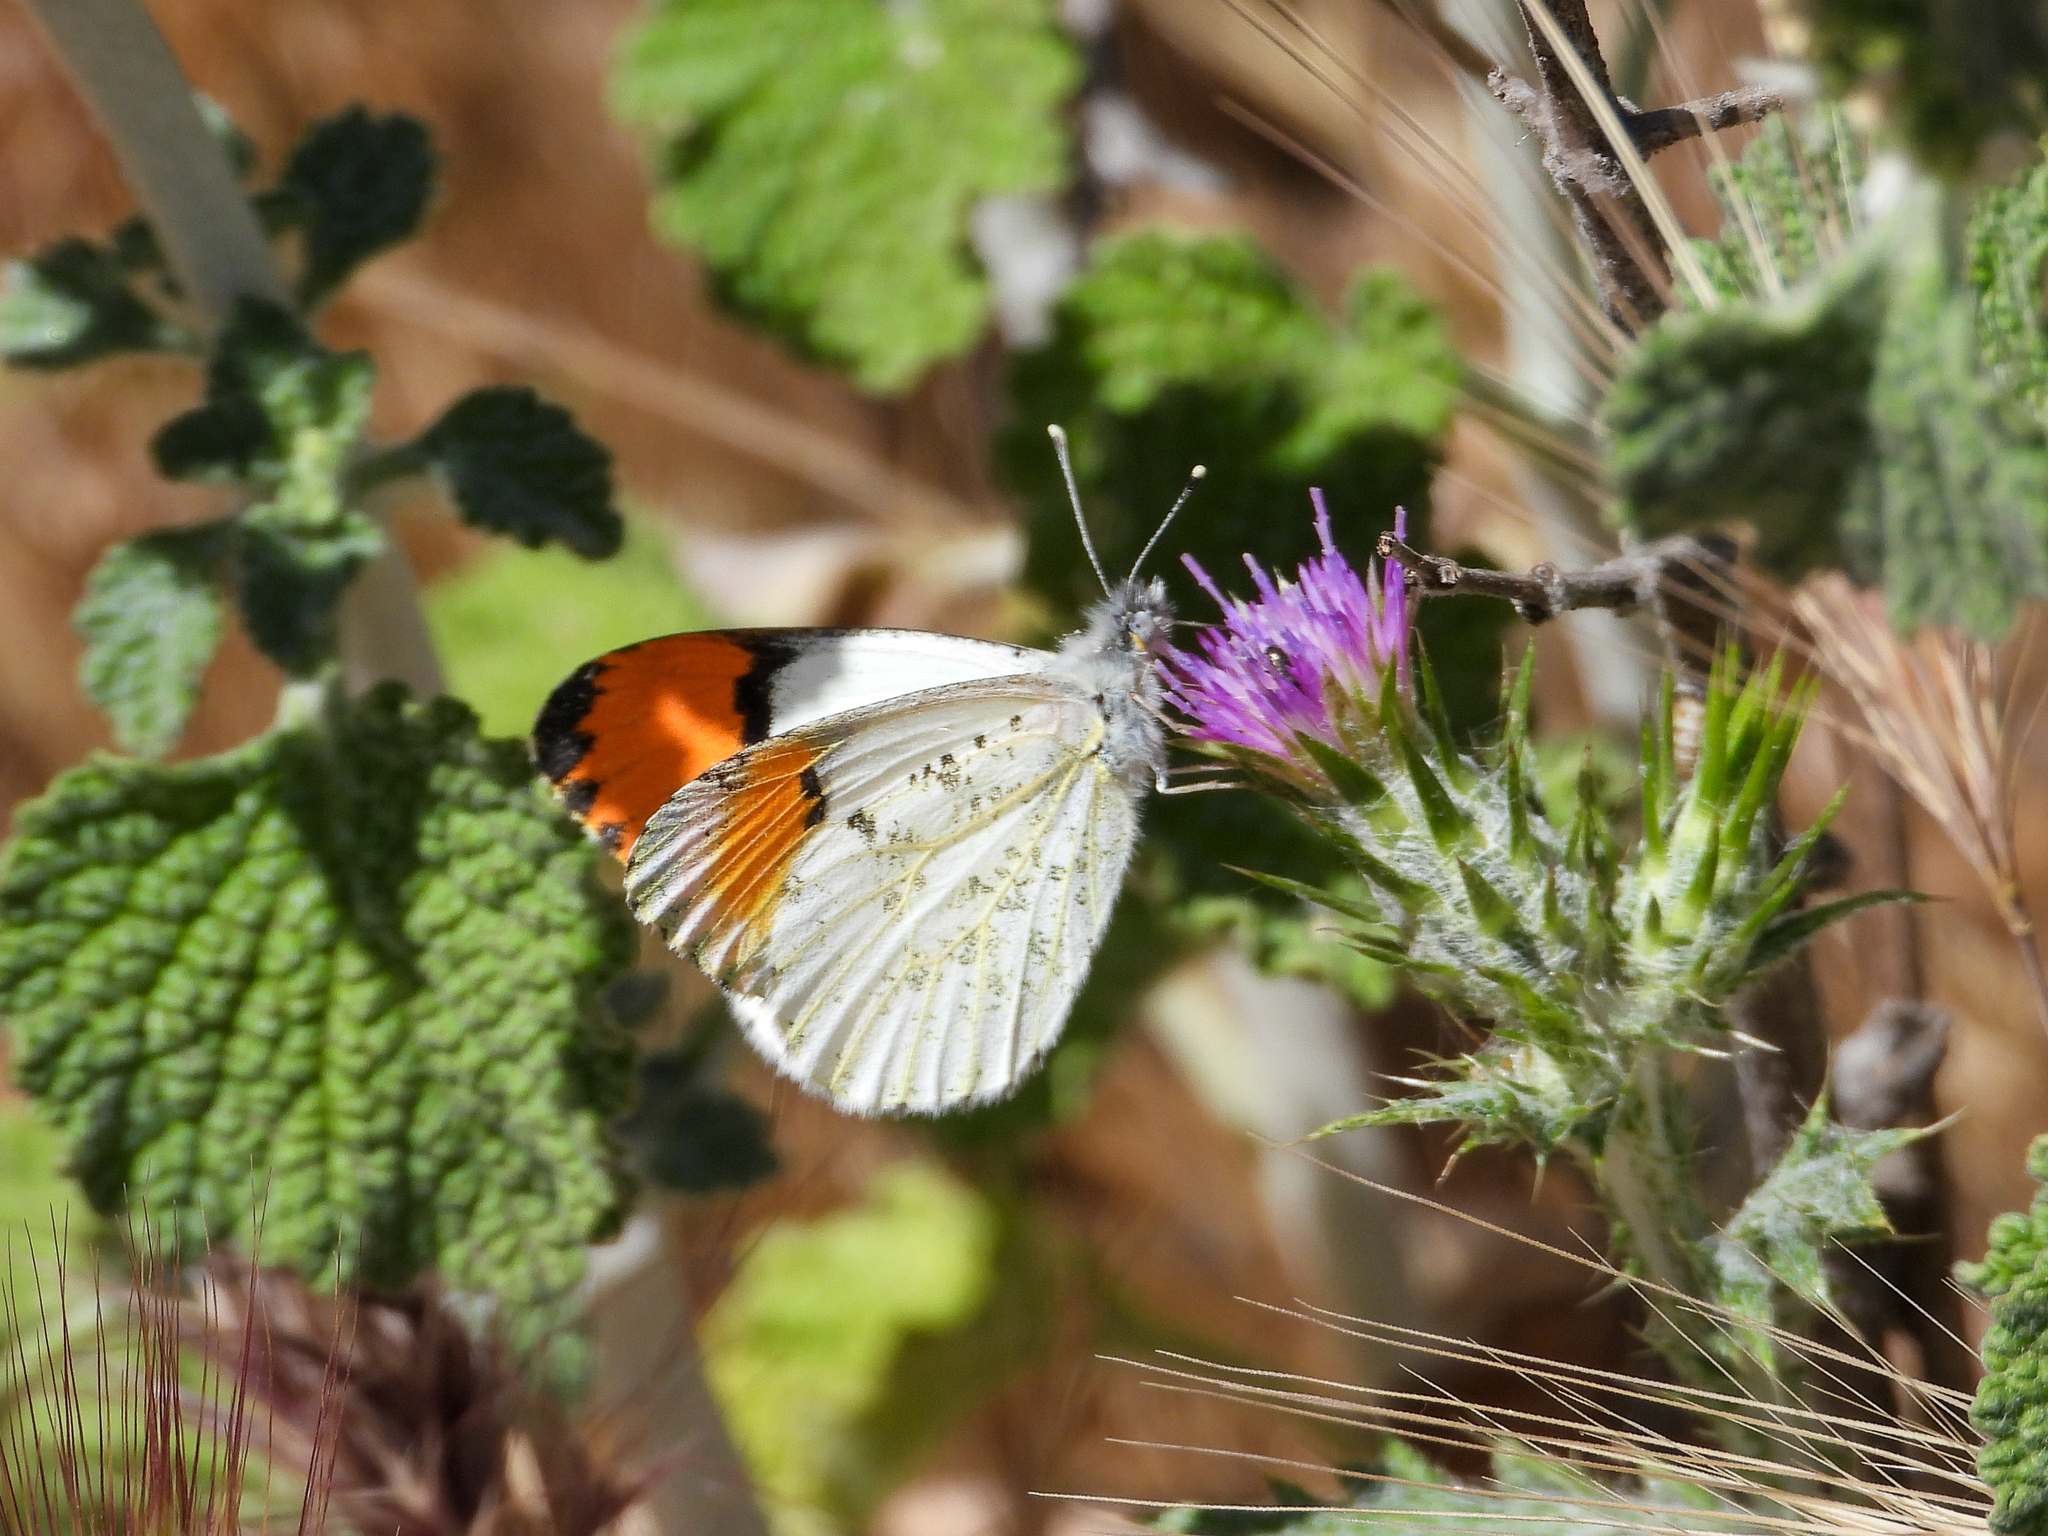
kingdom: Animalia
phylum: Arthropoda
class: Insecta
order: Lepidoptera
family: Pieridae
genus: Anthocharis
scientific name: Anthocharis sara
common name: Sara's orangetip
